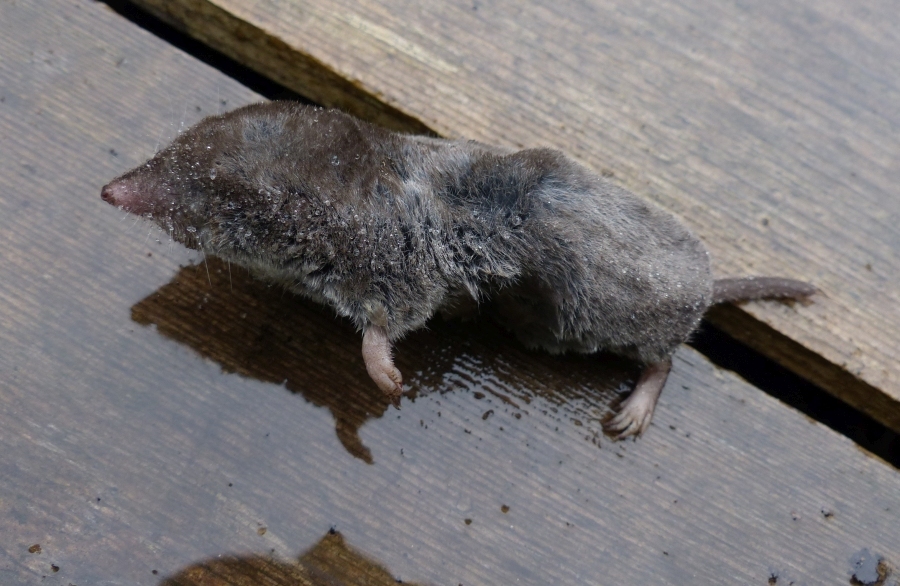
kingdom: Animalia
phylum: Chordata
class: Mammalia
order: Soricomorpha
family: Soricidae
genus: Blarina
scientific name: Blarina brevicauda
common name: Northern short-tailed shrew
